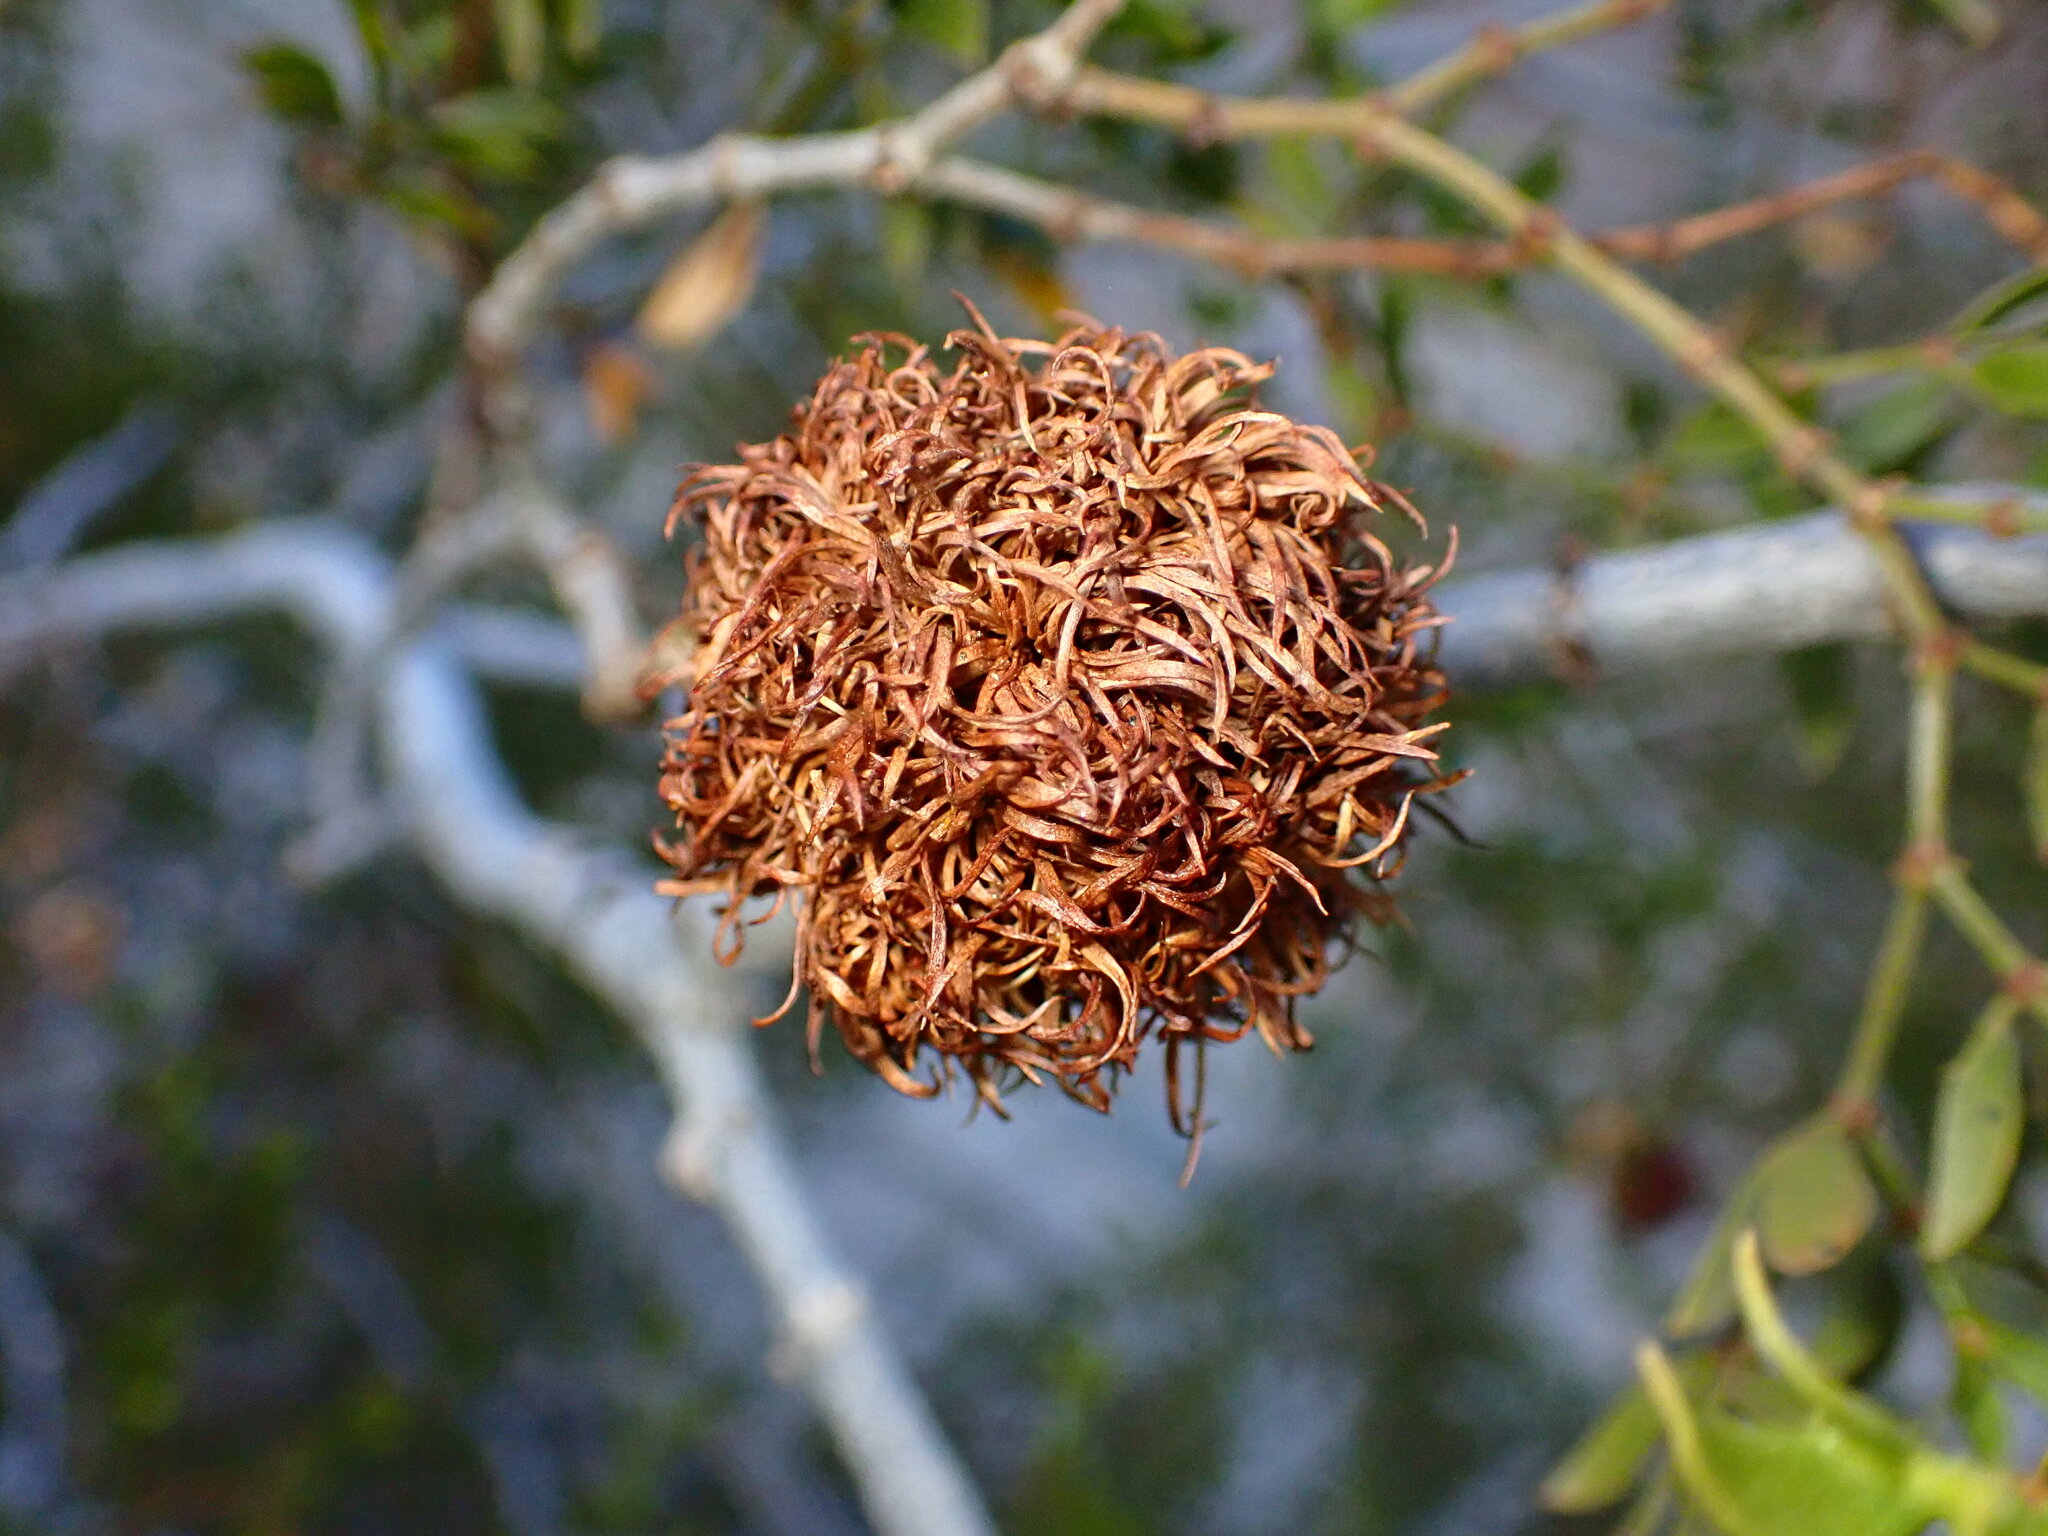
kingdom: Animalia
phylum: Arthropoda
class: Insecta
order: Diptera
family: Cecidomyiidae
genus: Asphondylia
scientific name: Asphondylia auripila
